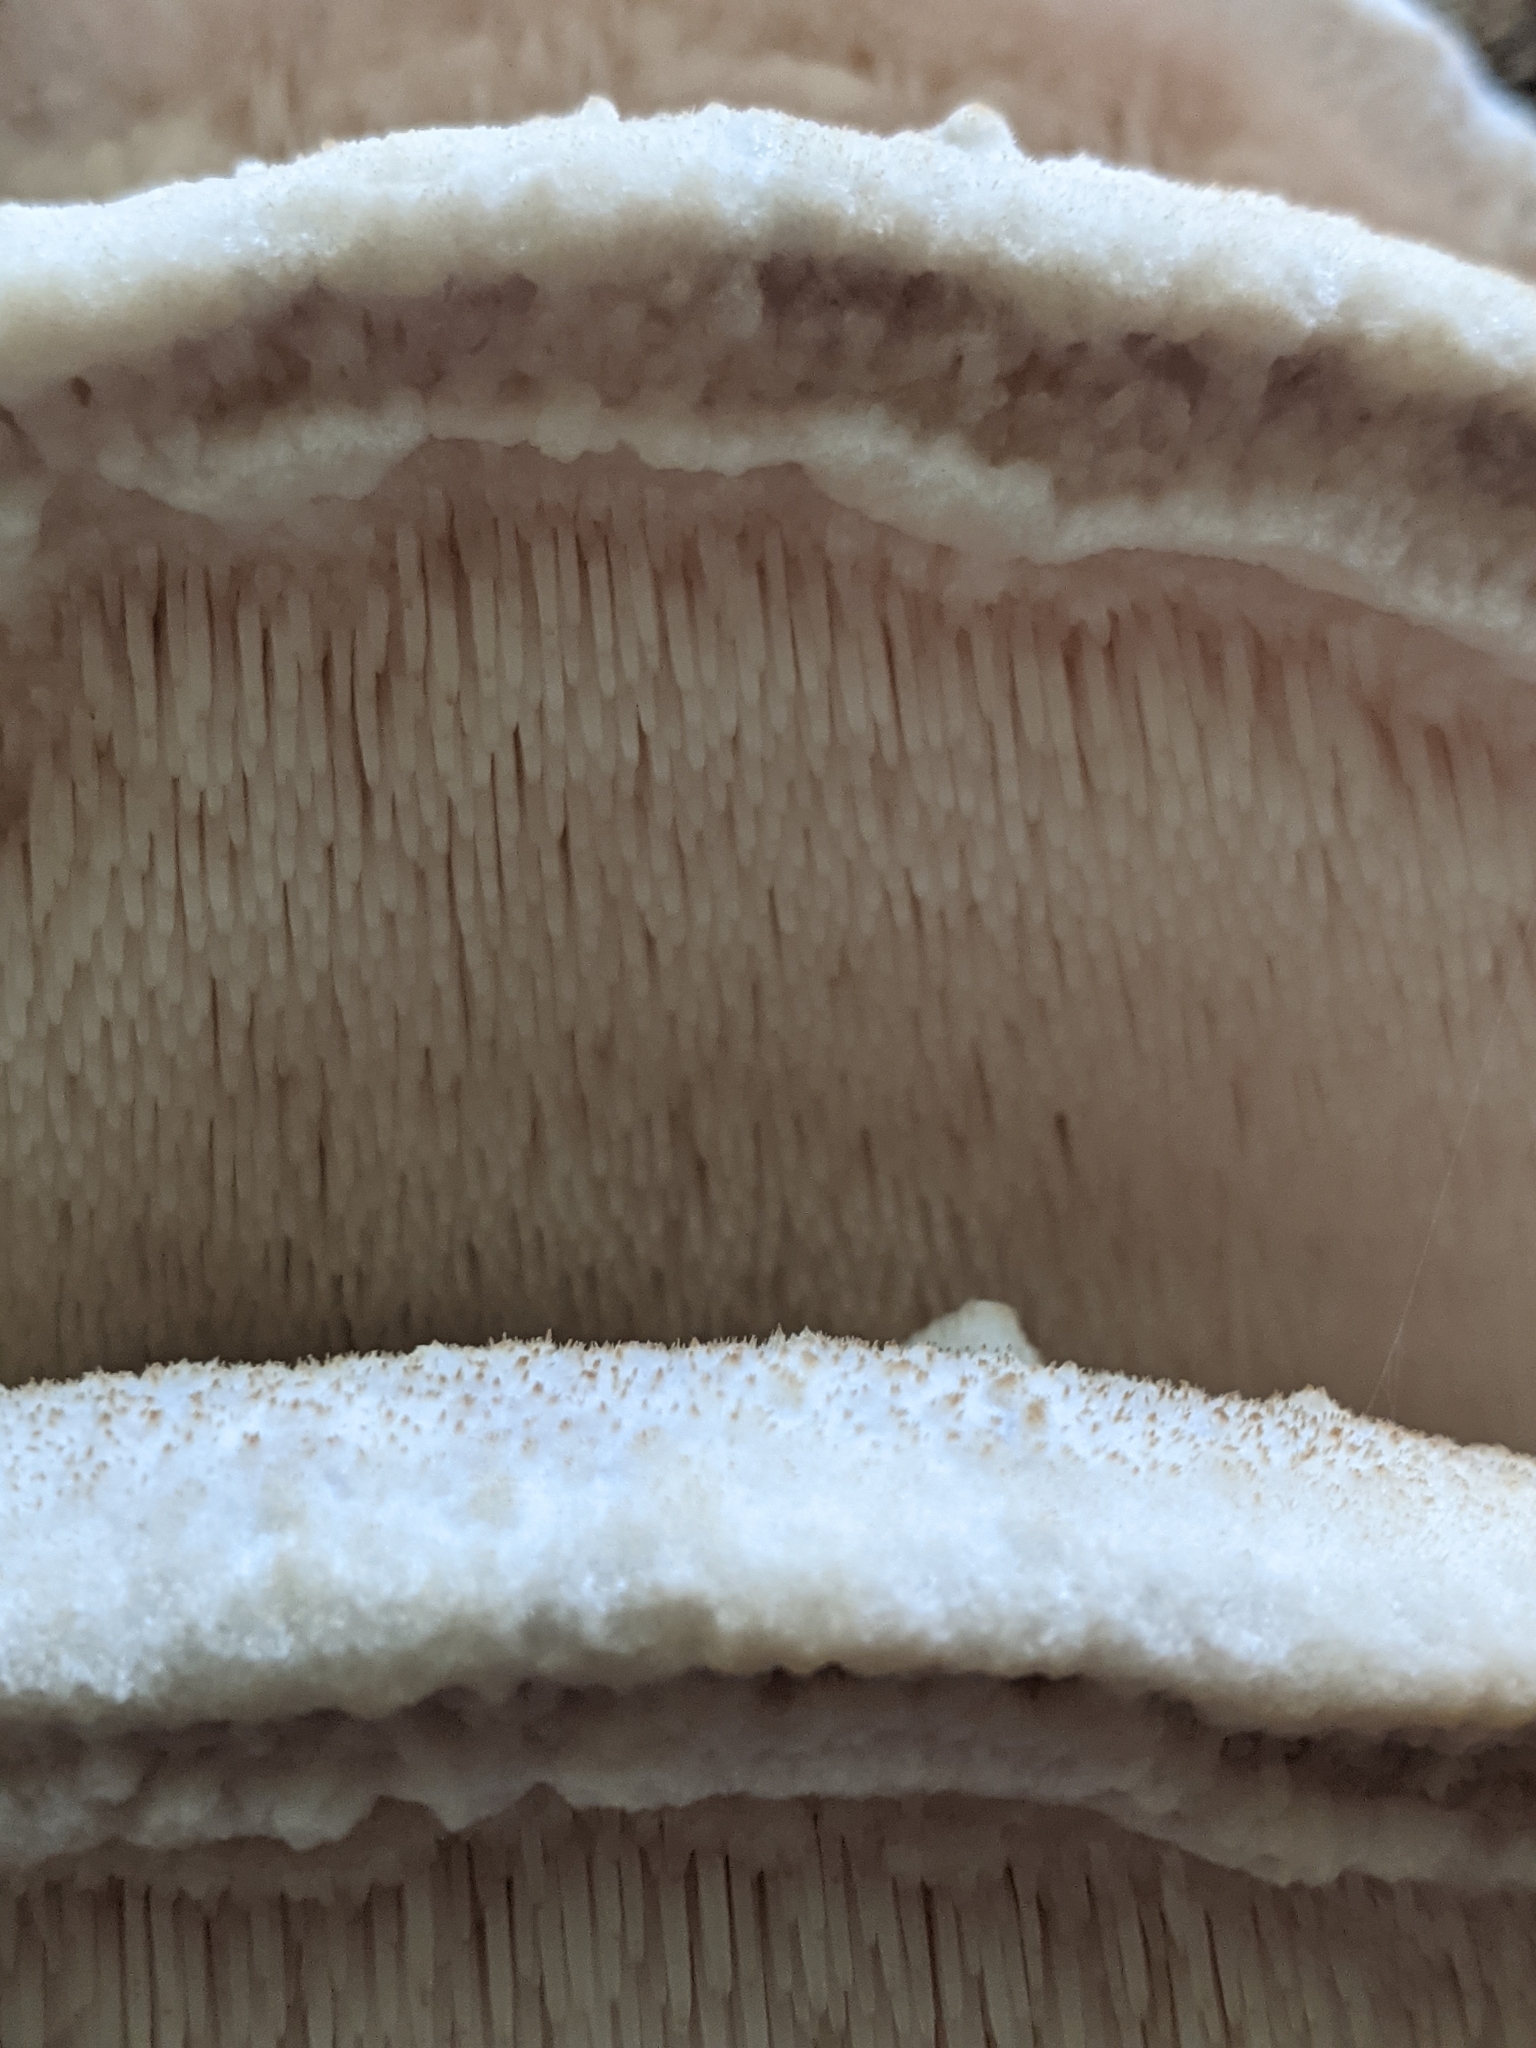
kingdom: Fungi
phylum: Basidiomycota
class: Agaricomycetes
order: Polyporales
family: Meruliaceae
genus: Climacodon
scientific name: Climacodon septentrionalis
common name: Northern tooth
